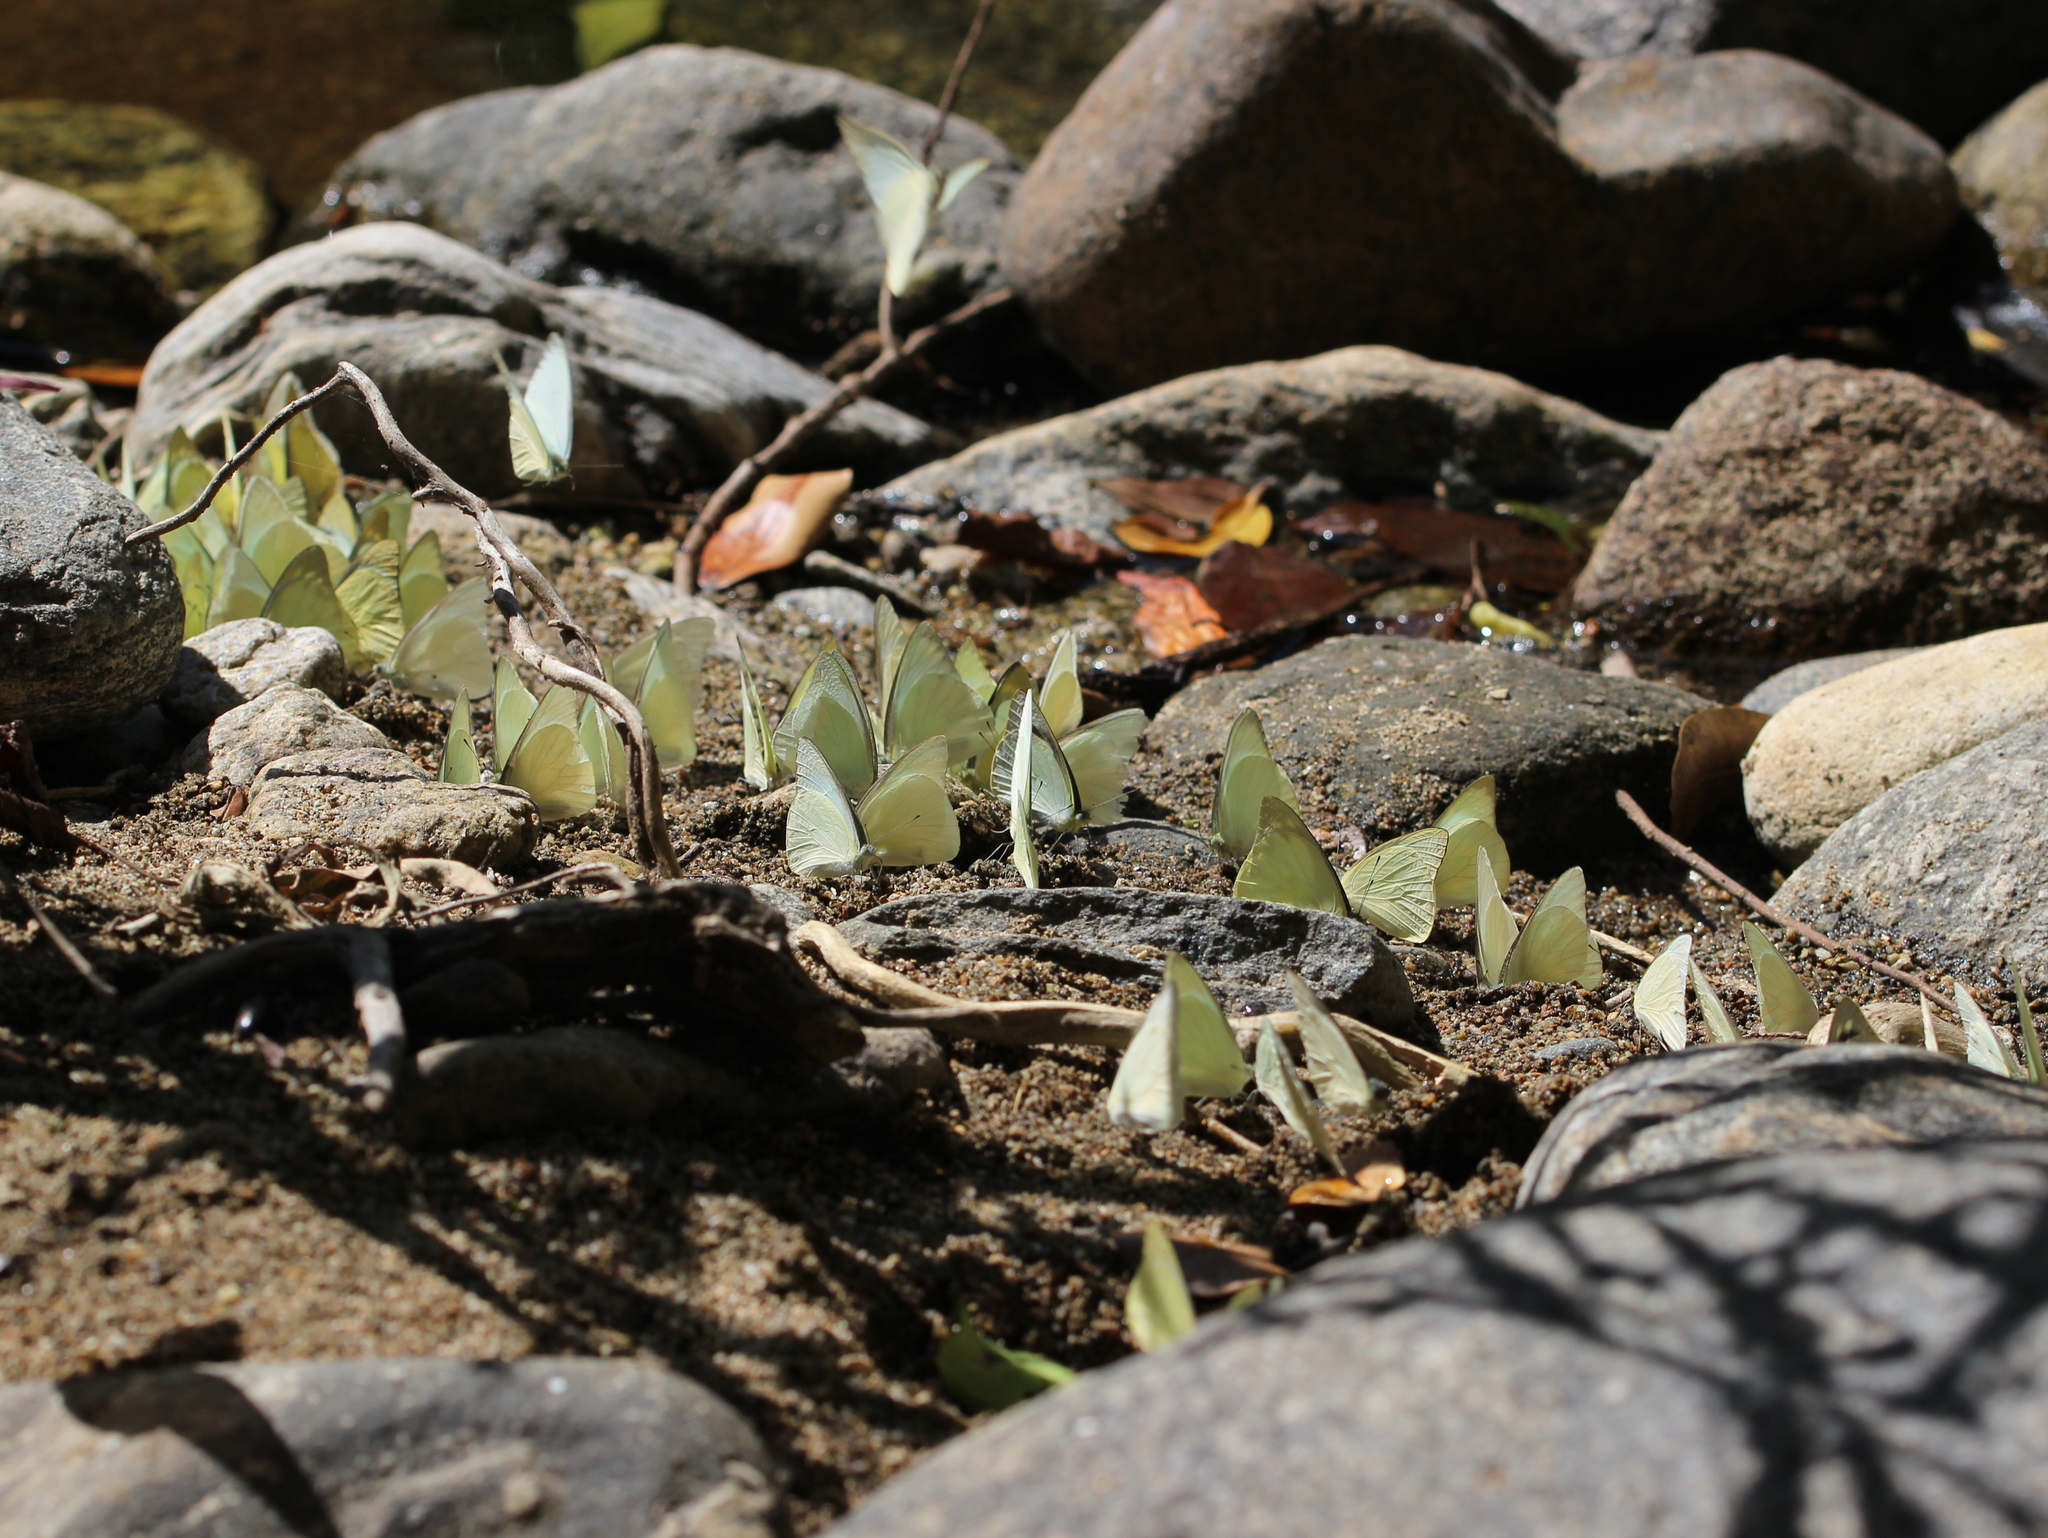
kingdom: Animalia
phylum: Arthropoda
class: Insecta
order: Lepidoptera
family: Pieridae
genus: Appias
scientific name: Appias albina
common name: Common albatross
